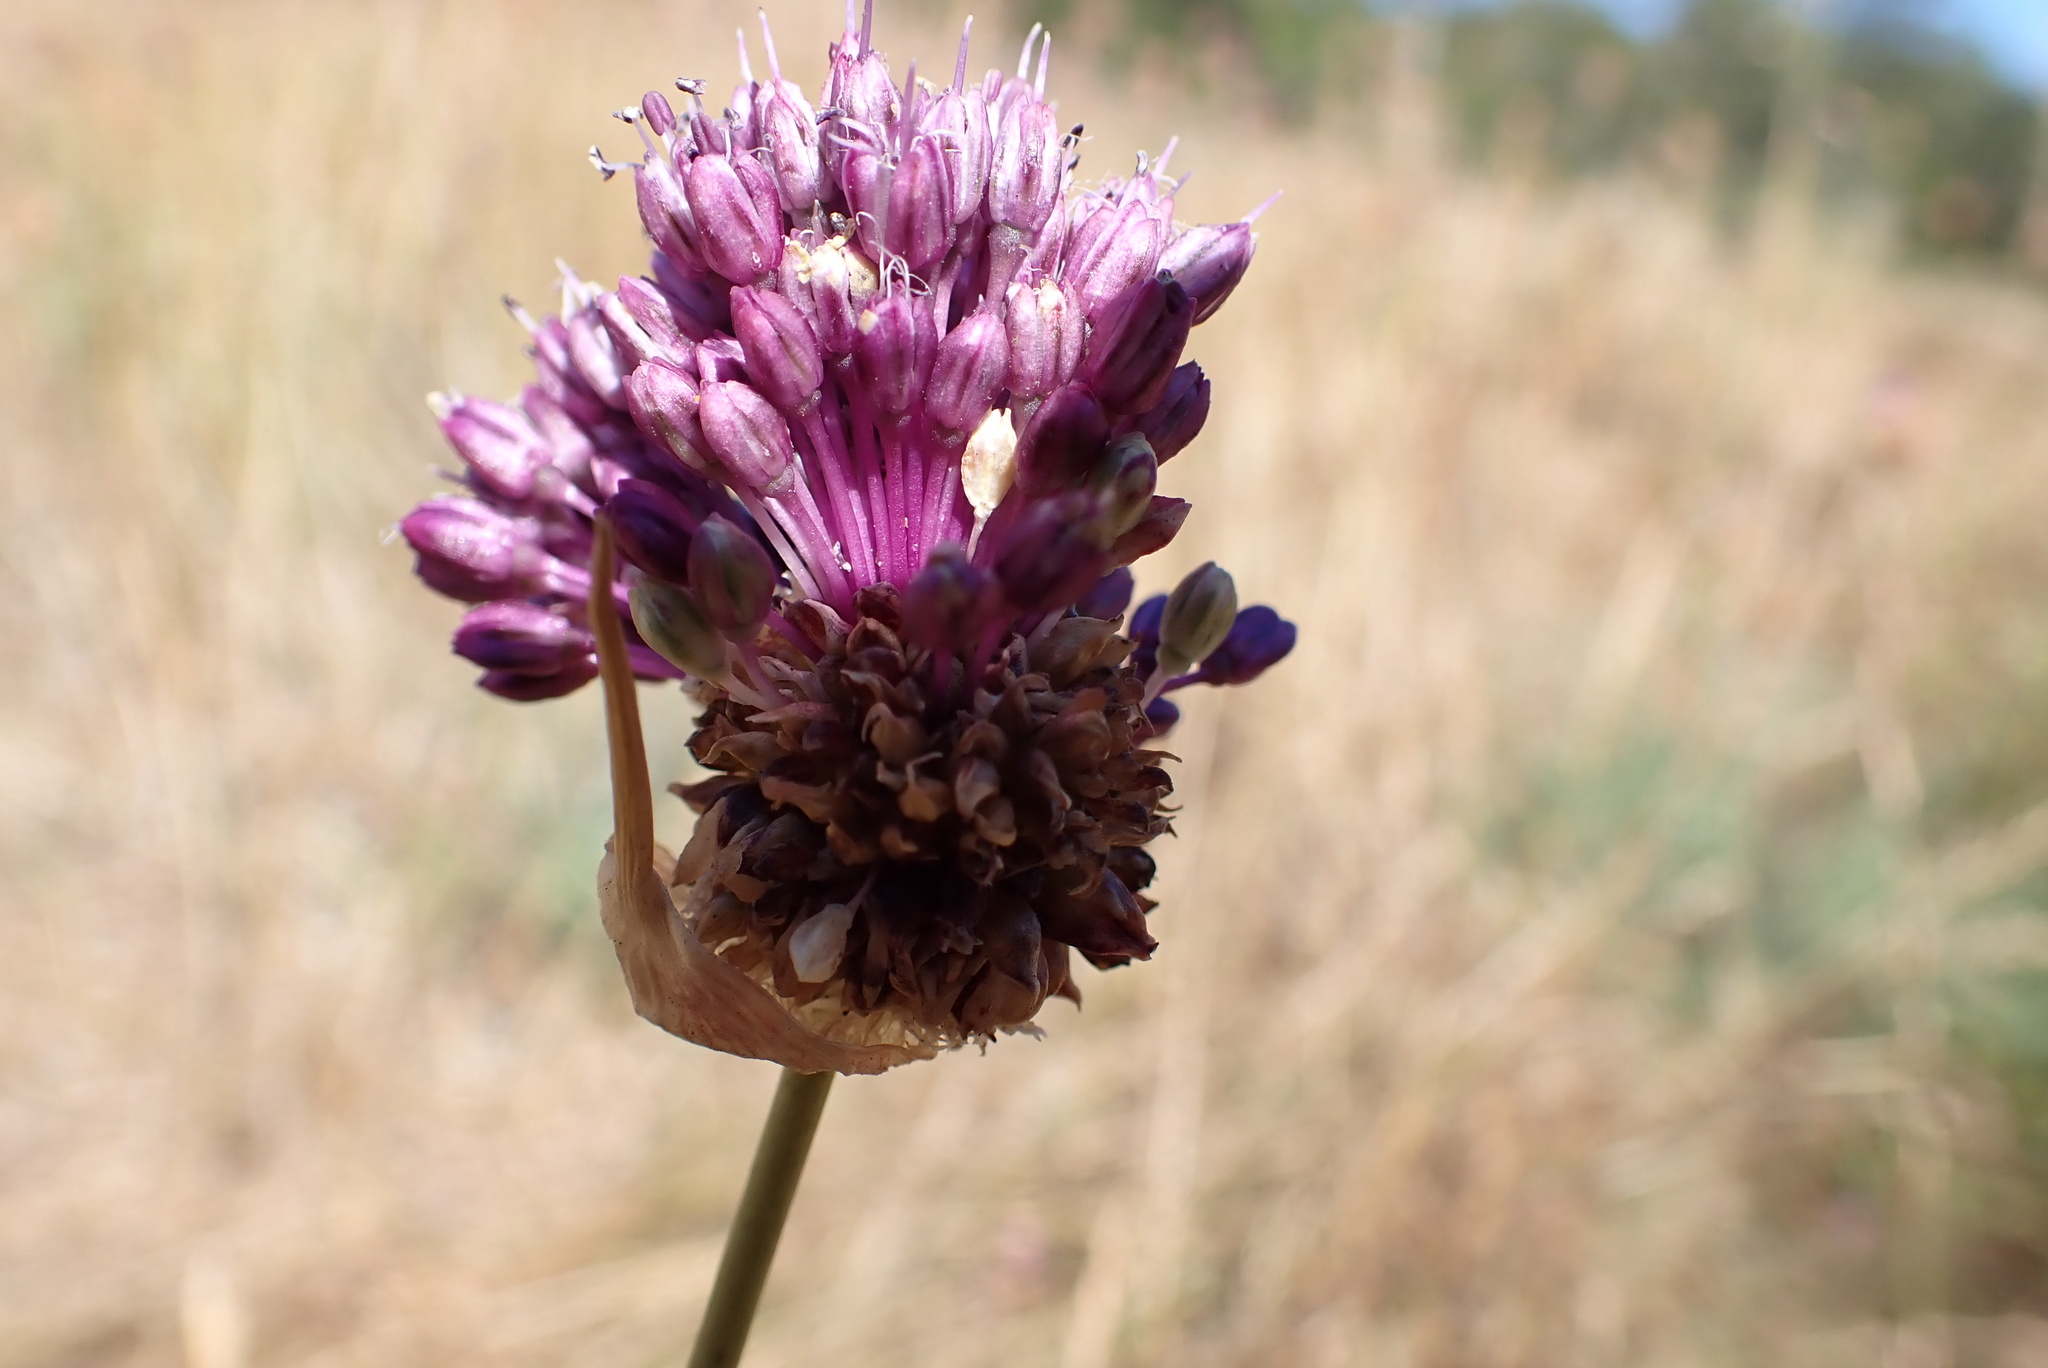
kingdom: Plantae
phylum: Tracheophyta
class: Liliopsida
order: Asparagales
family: Amaryllidaceae
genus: Allium
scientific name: Allium vineale
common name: Crow garlic
